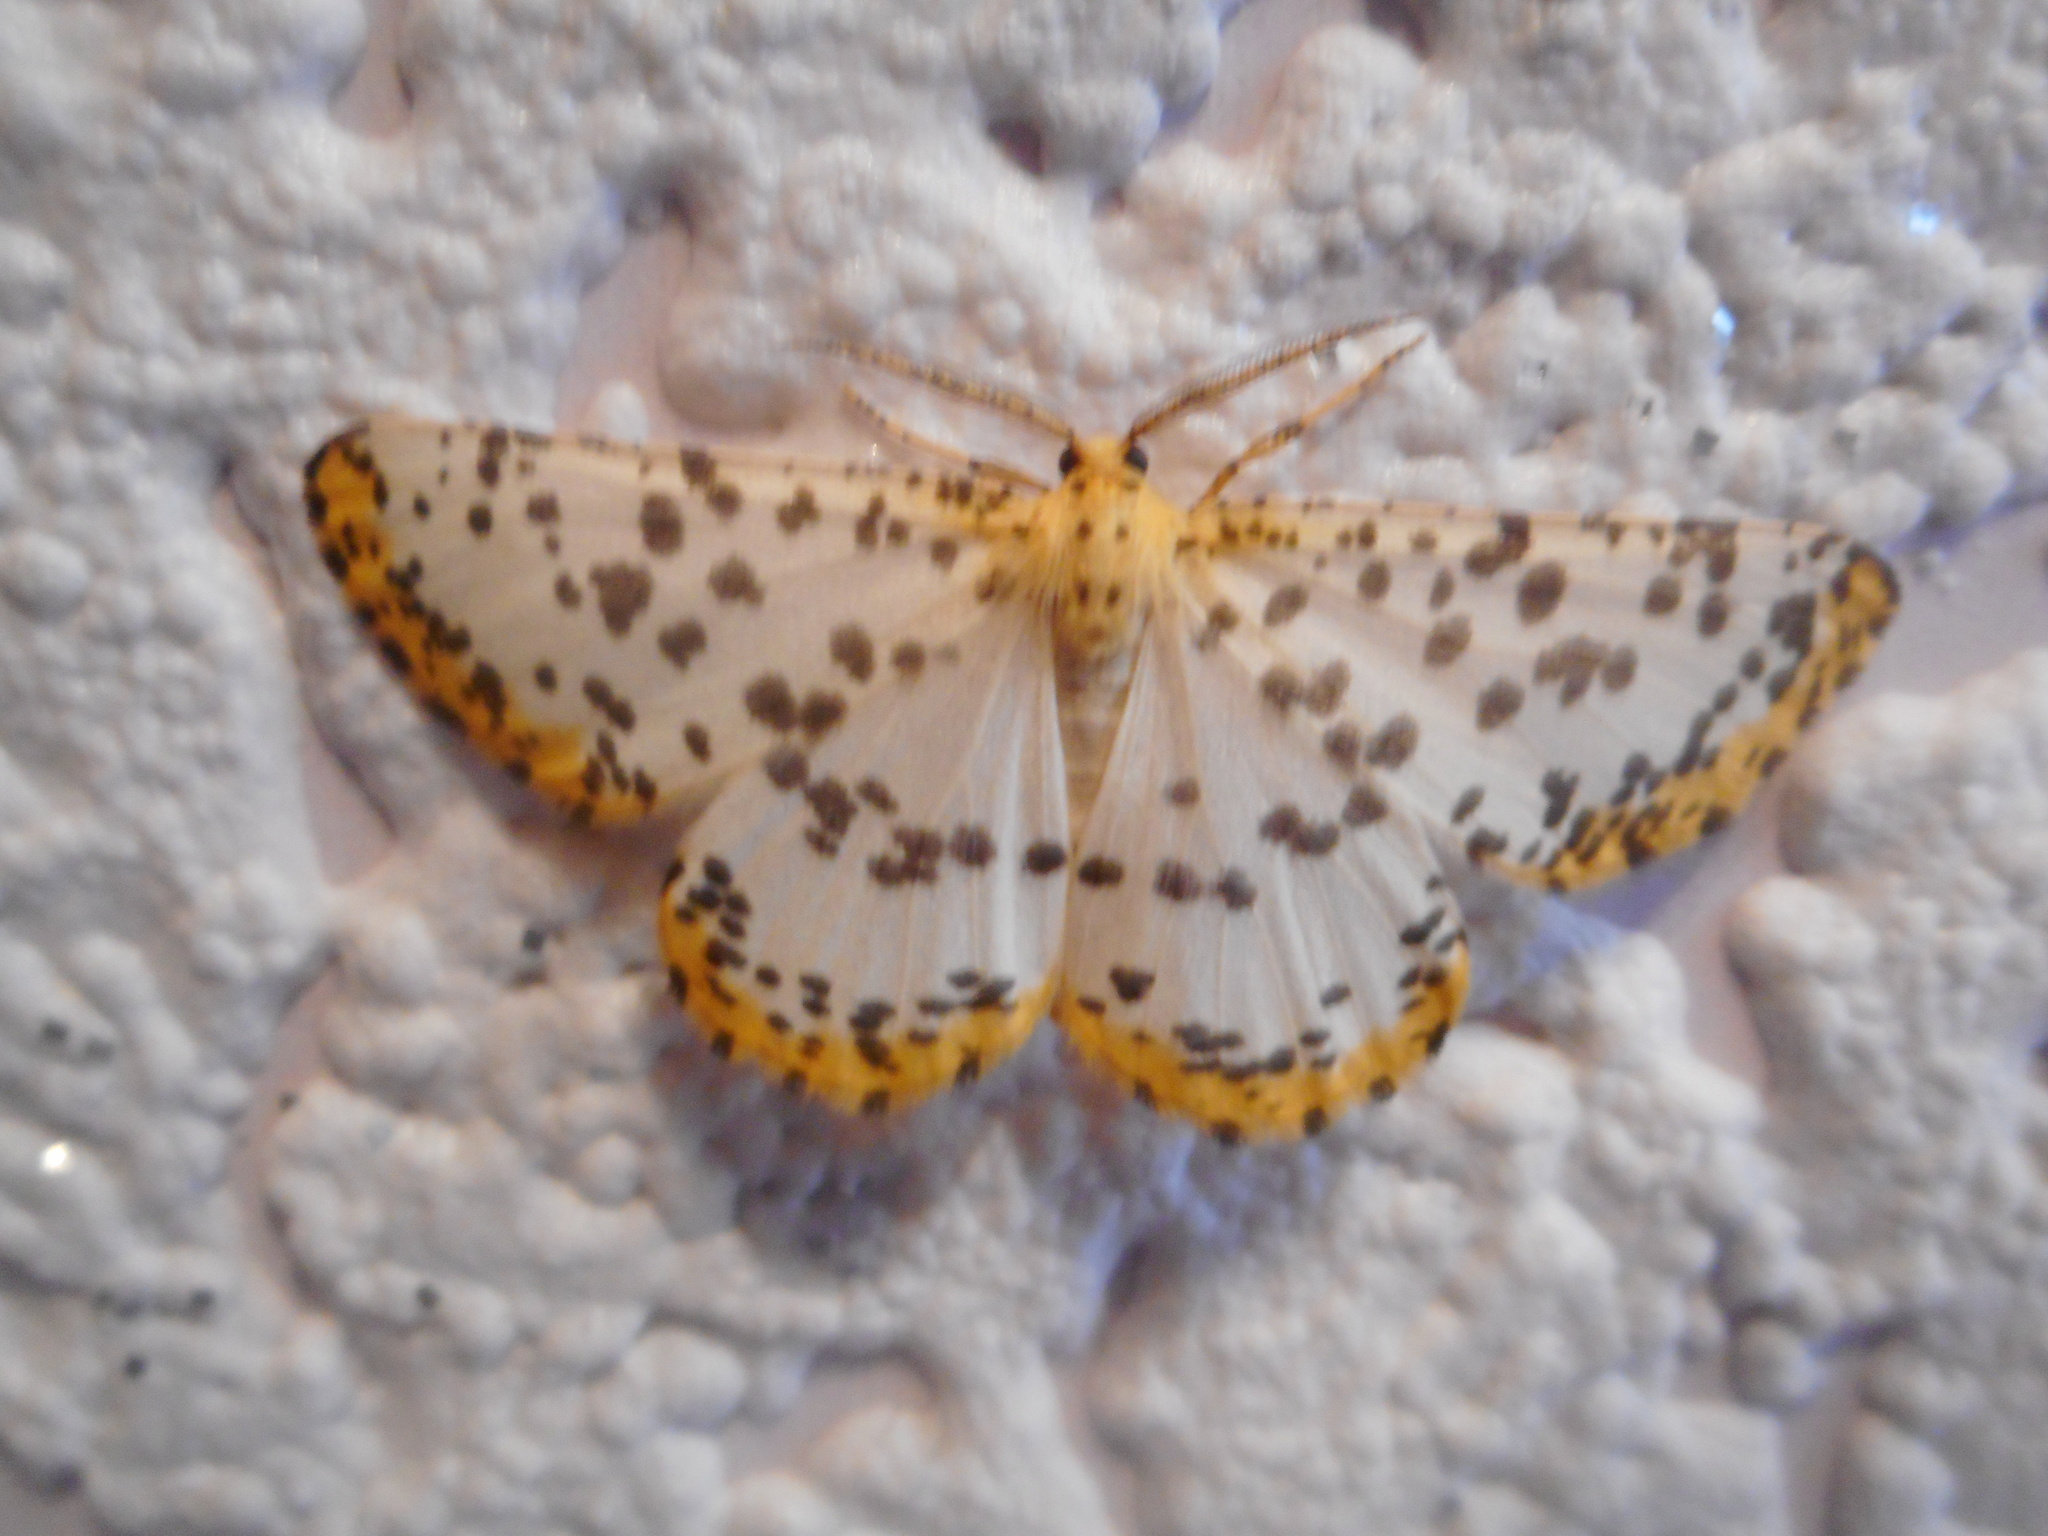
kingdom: Animalia
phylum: Arthropoda
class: Insecta
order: Lepidoptera
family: Geometridae
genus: Diaprepesilla
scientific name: Diaprepesilla flavomarginaria
